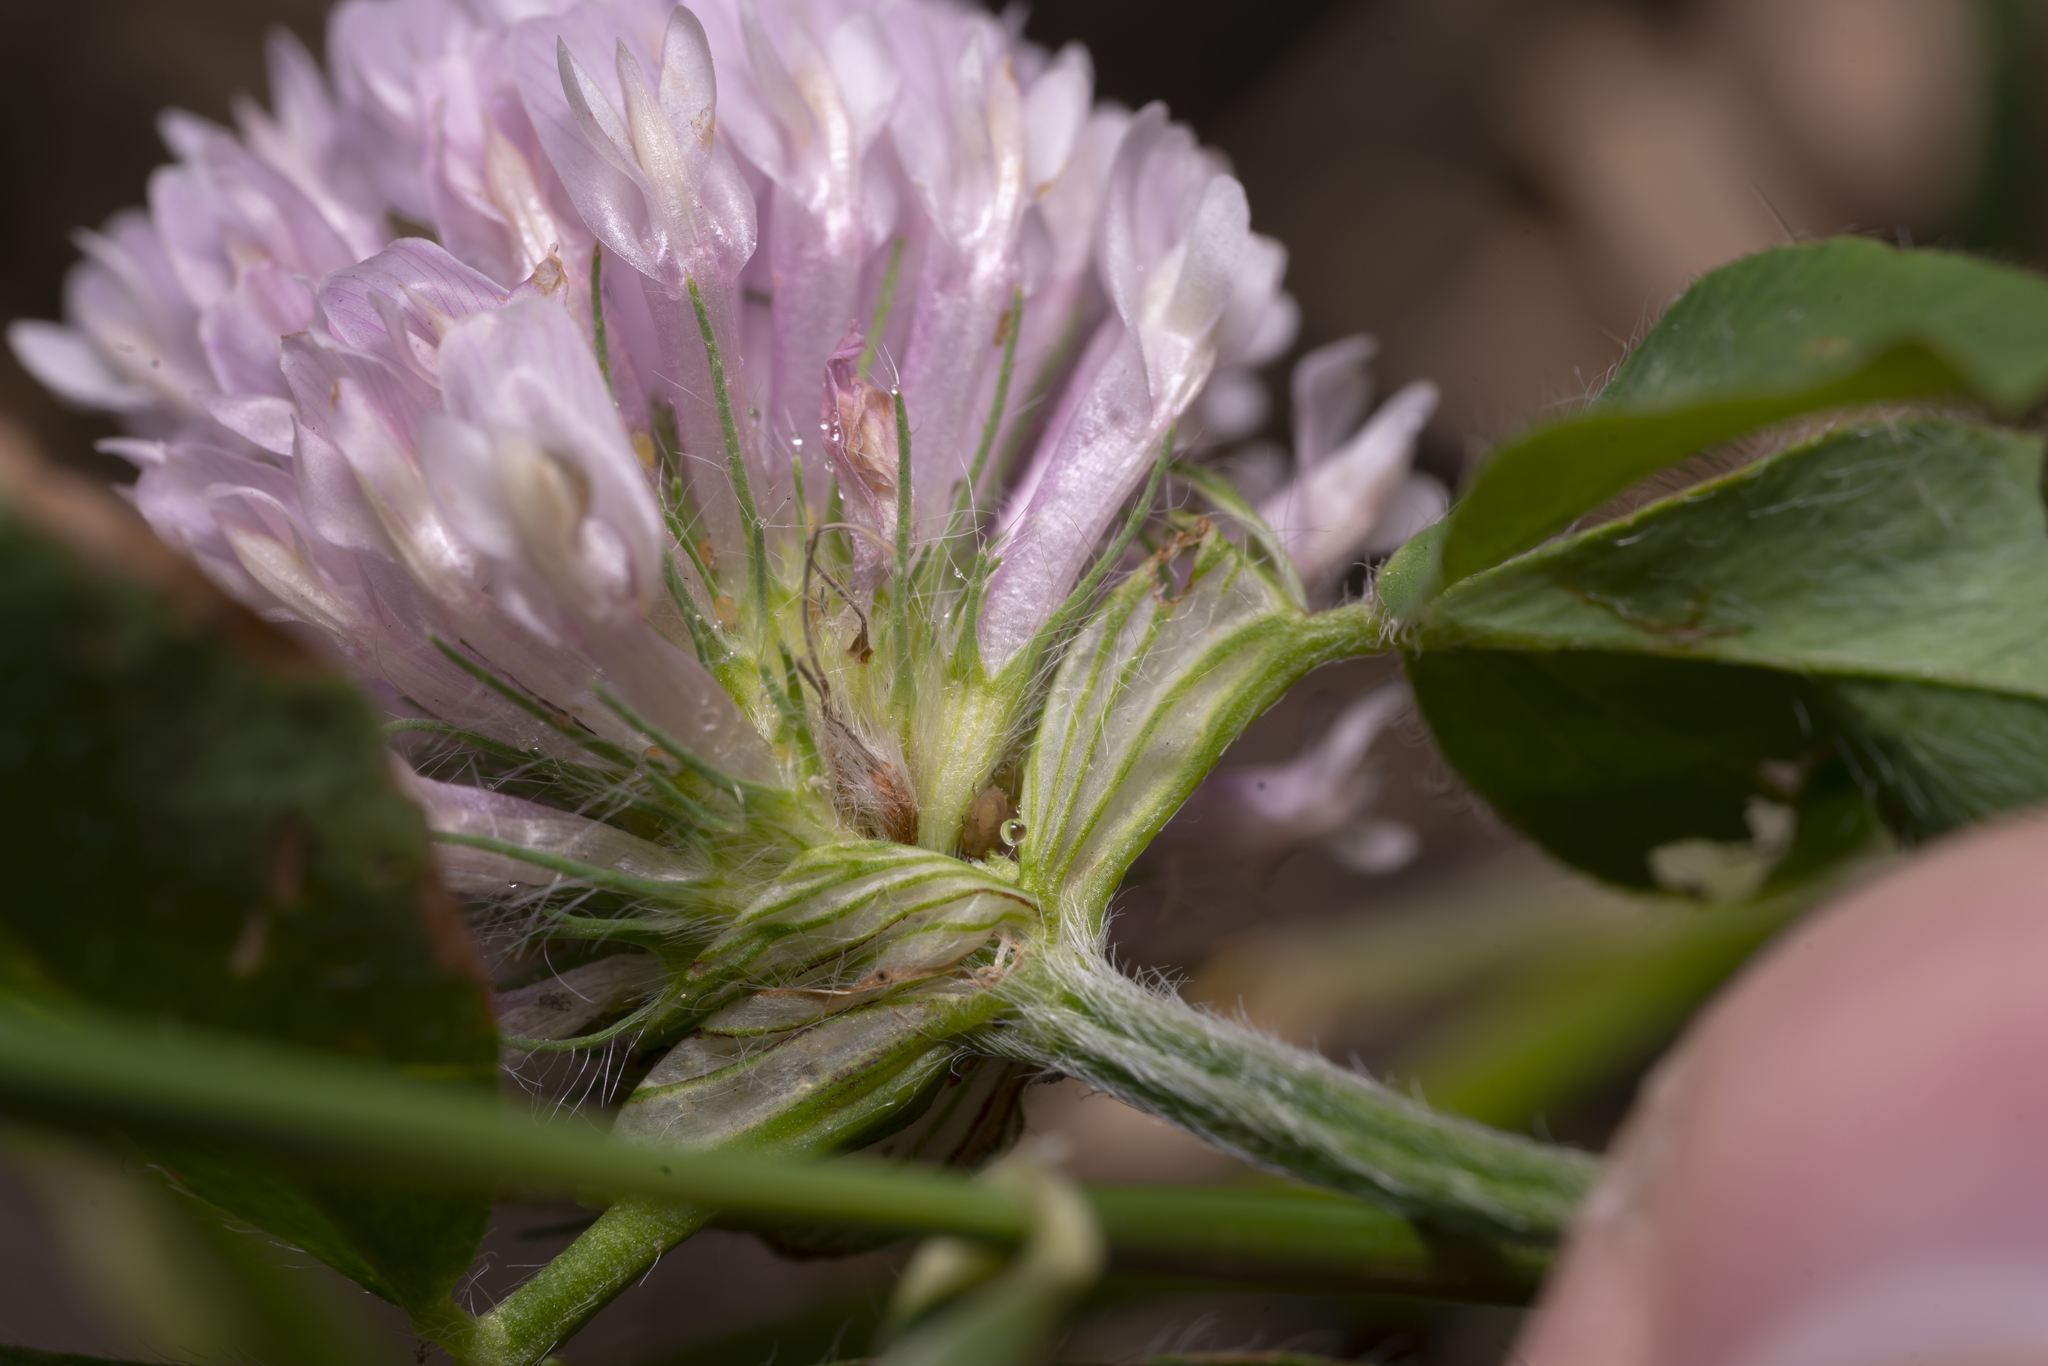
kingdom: Plantae
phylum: Tracheophyta
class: Magnoliopsida
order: Fabales
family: Fabaceae
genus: Trifolium
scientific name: Trifolium pratense
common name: Red clover
